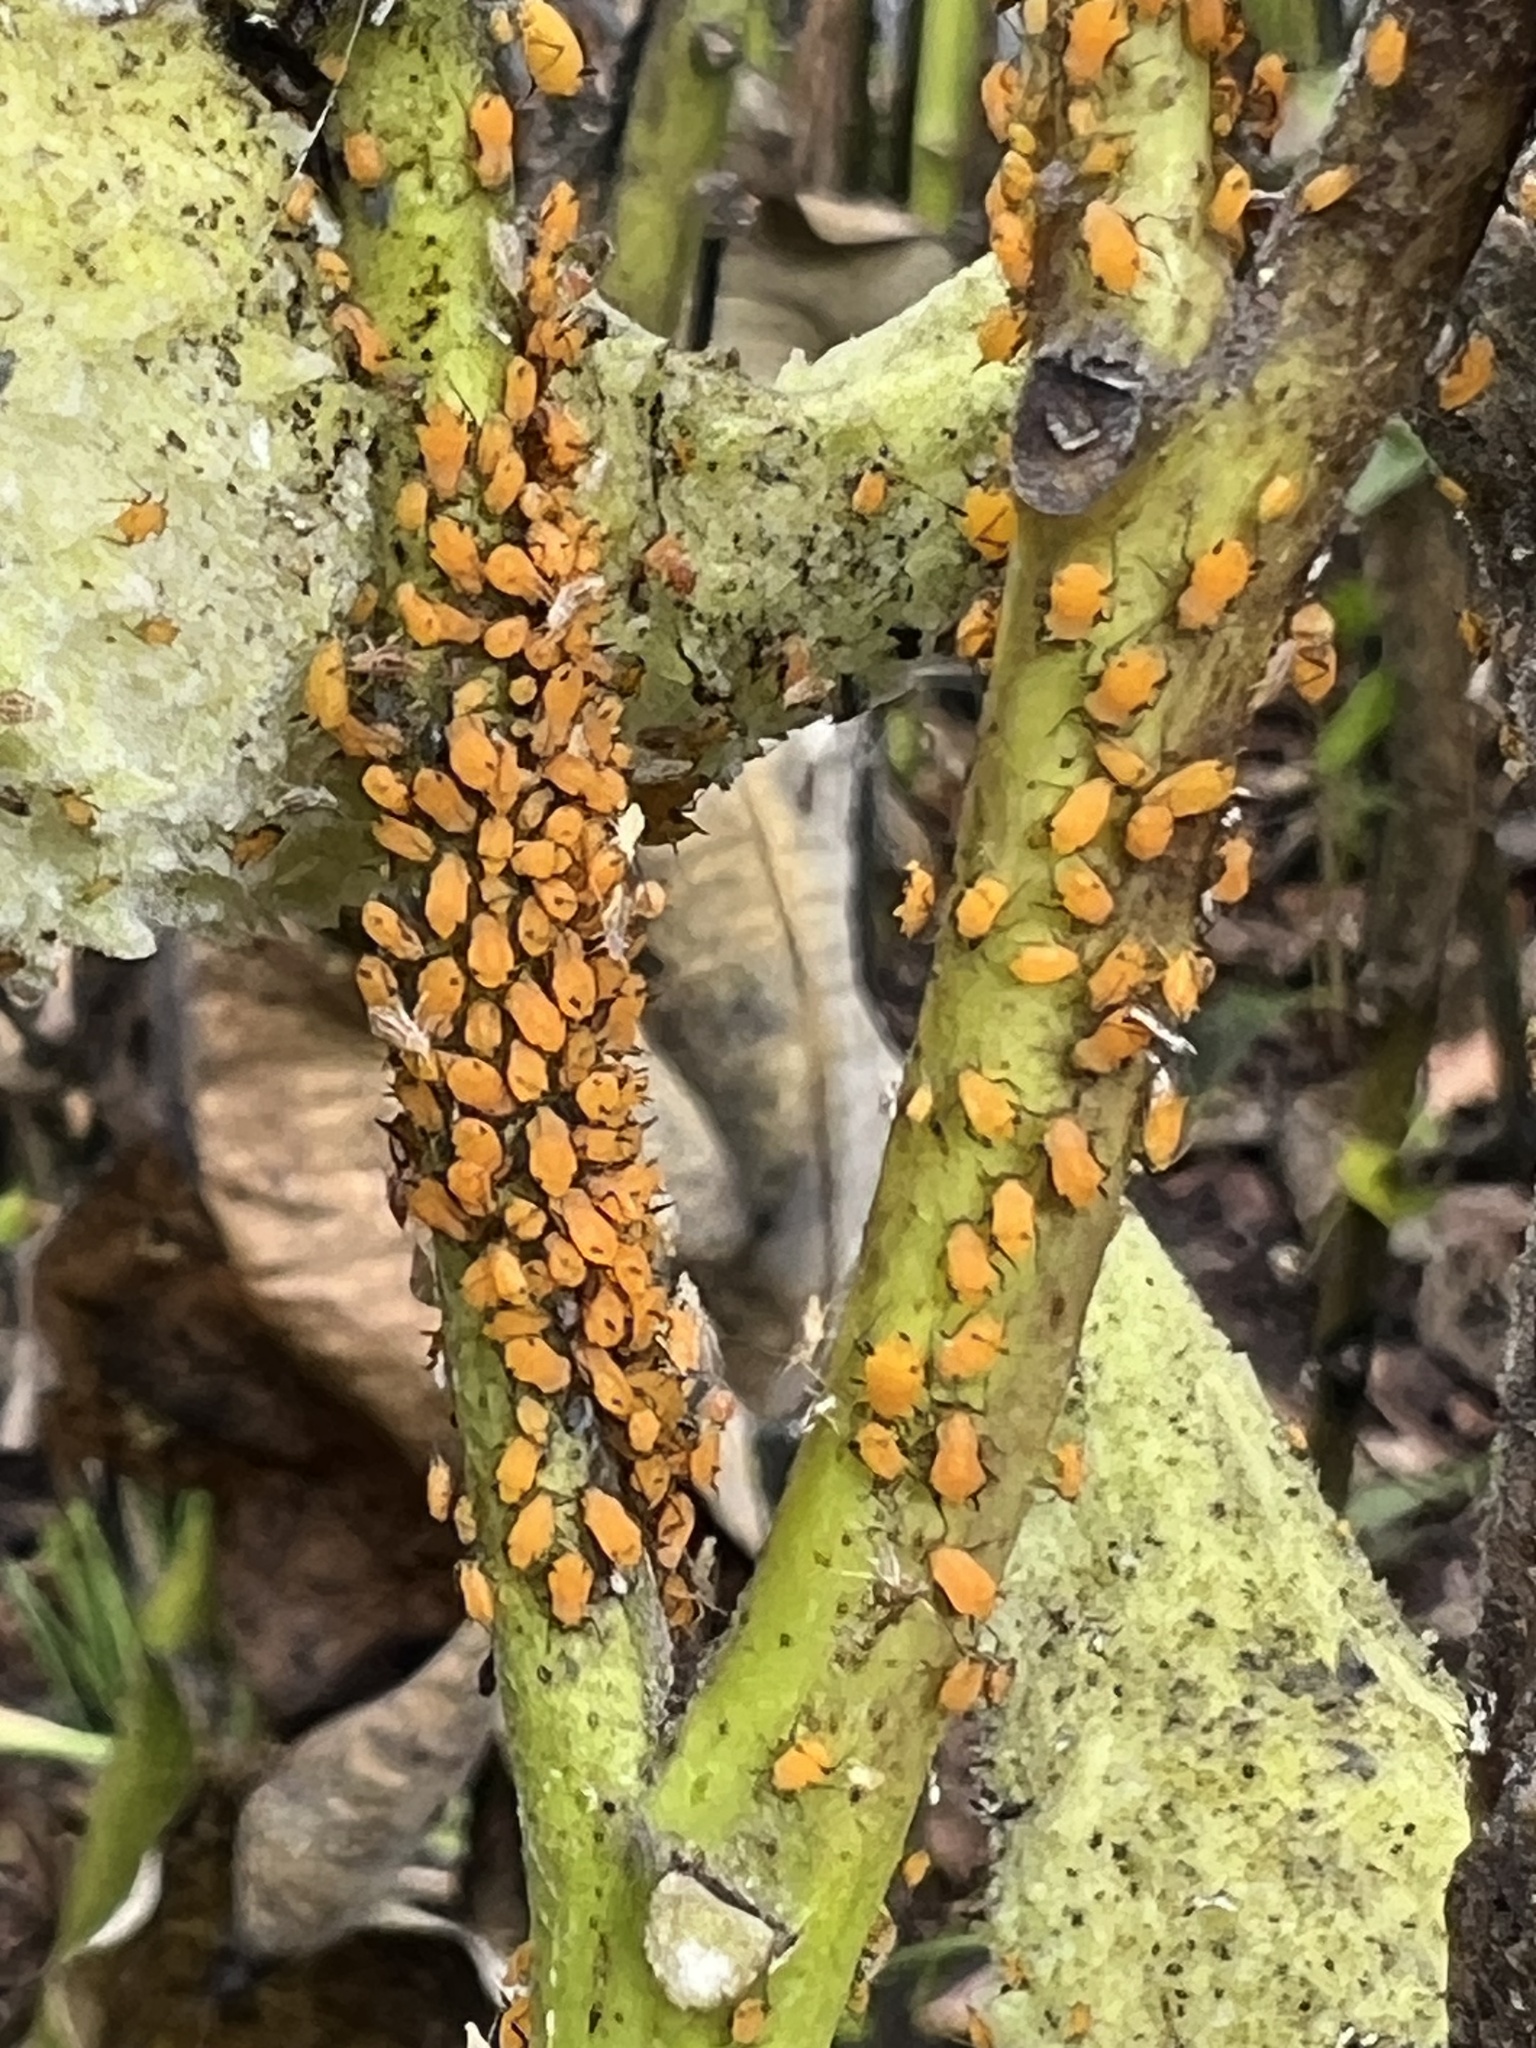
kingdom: Animalia
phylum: Arthropoda
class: Insecta
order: Hemiptera
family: Aphididae
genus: Aphis
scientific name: Aphis nerii
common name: Oleander aphid
